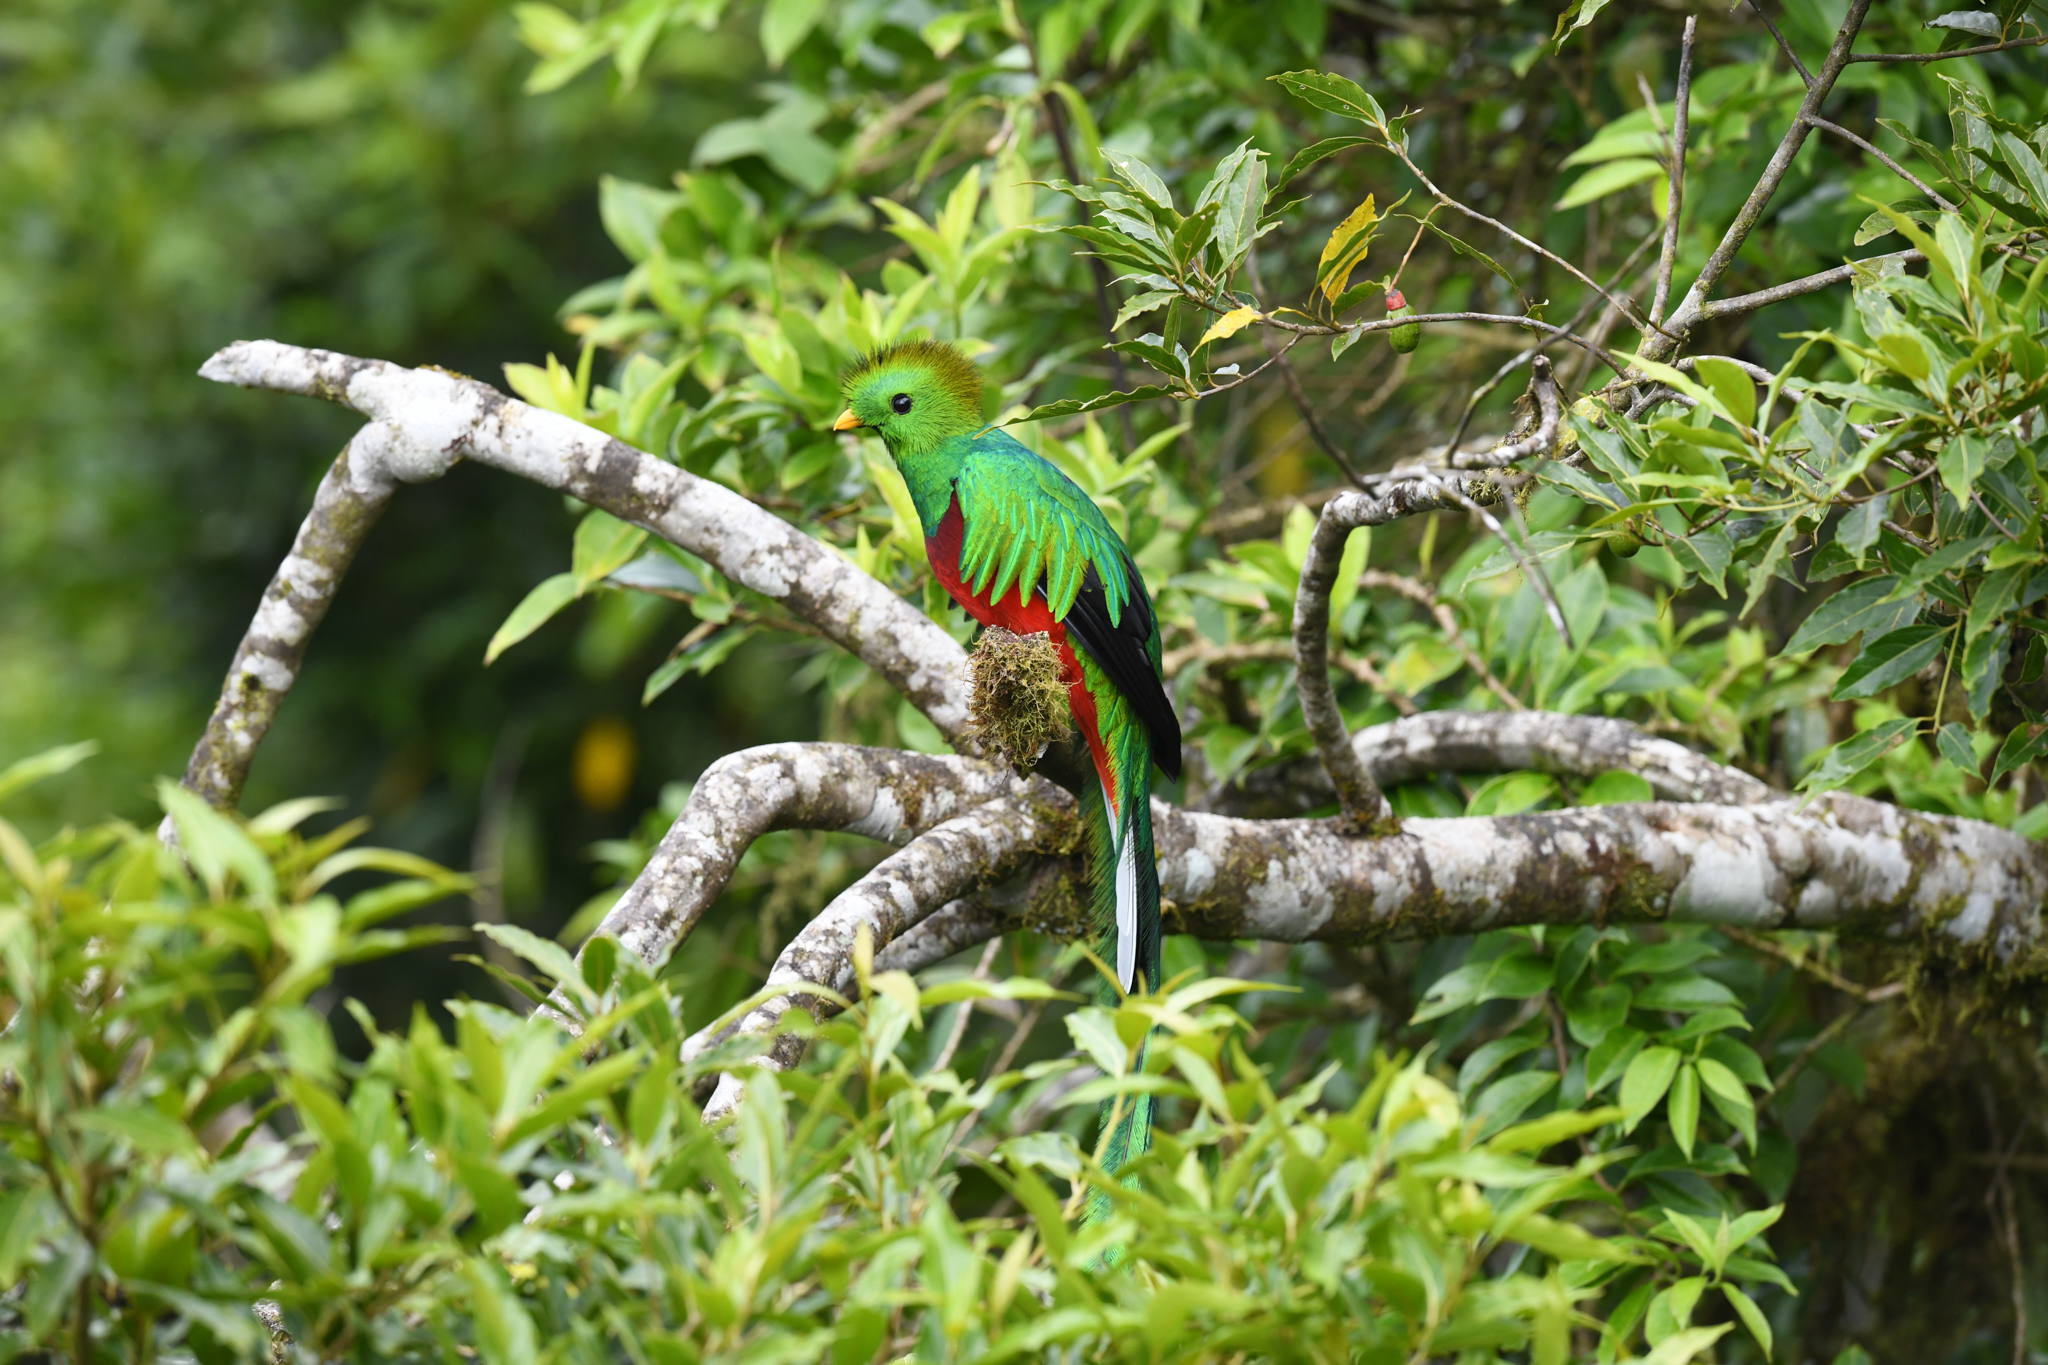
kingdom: Animalia
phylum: Chordata
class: Aves
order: Trogoniformes
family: Trogonidae
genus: Pharomachrus
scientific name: Pharomachrus mocinno
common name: Resplendent quetzal
